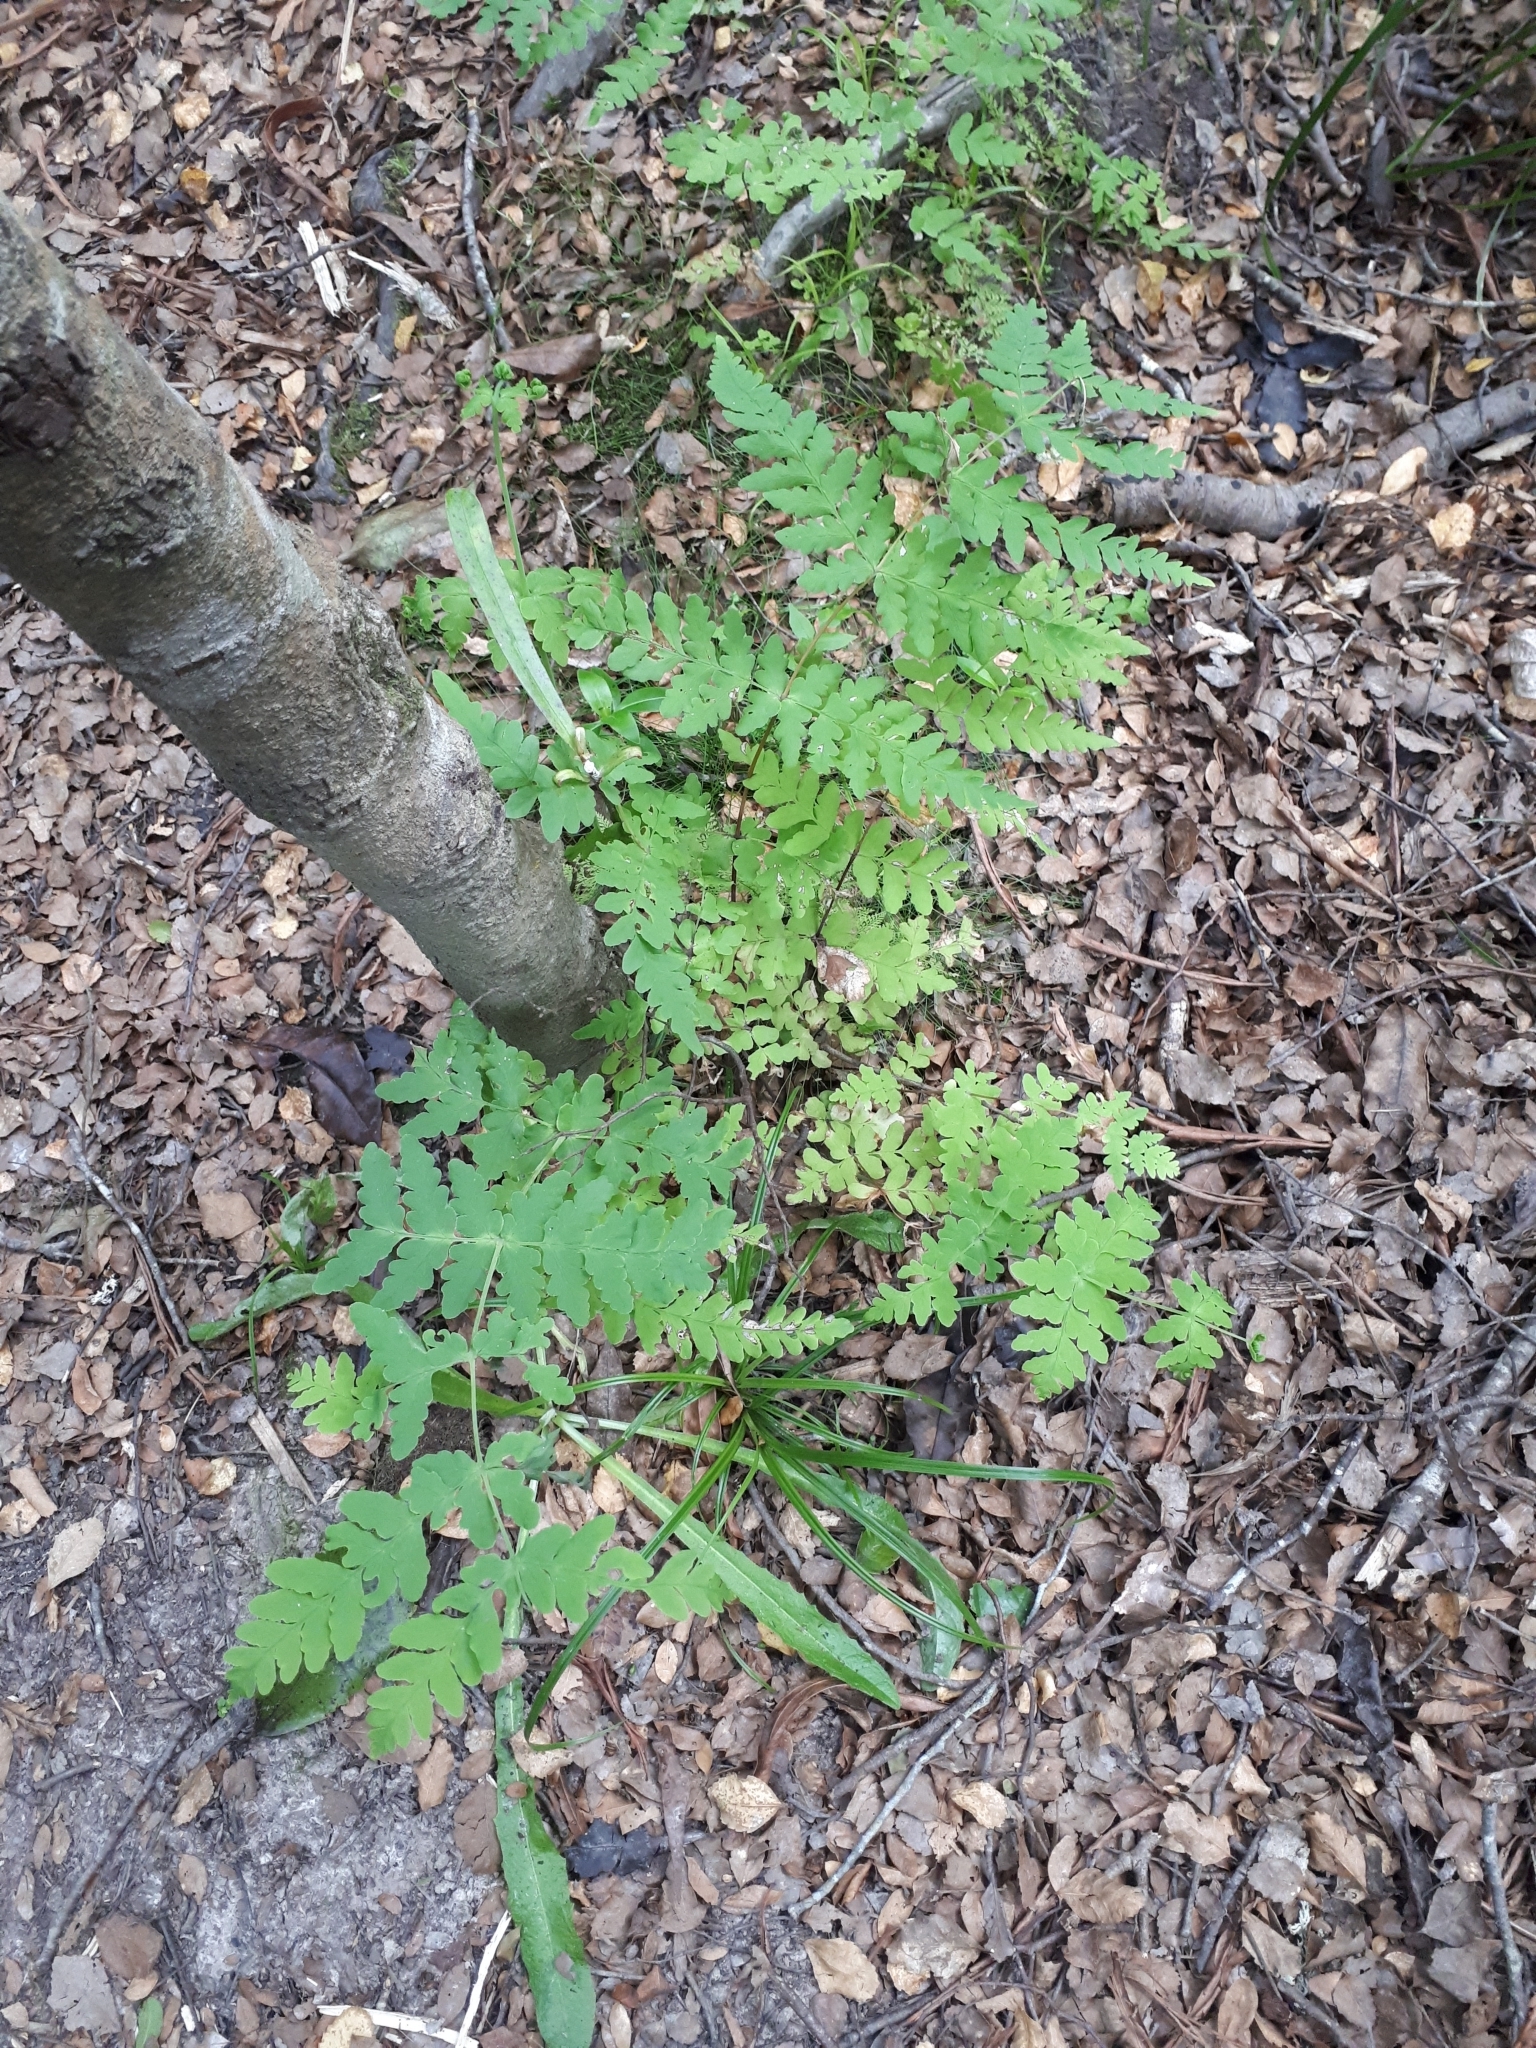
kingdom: Plantae
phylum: Tracheophyta
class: Polypodiopsida
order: Polypodiales
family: Dennstaedtiaceae
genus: Histiopteris
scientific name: Histiopteris incisa
